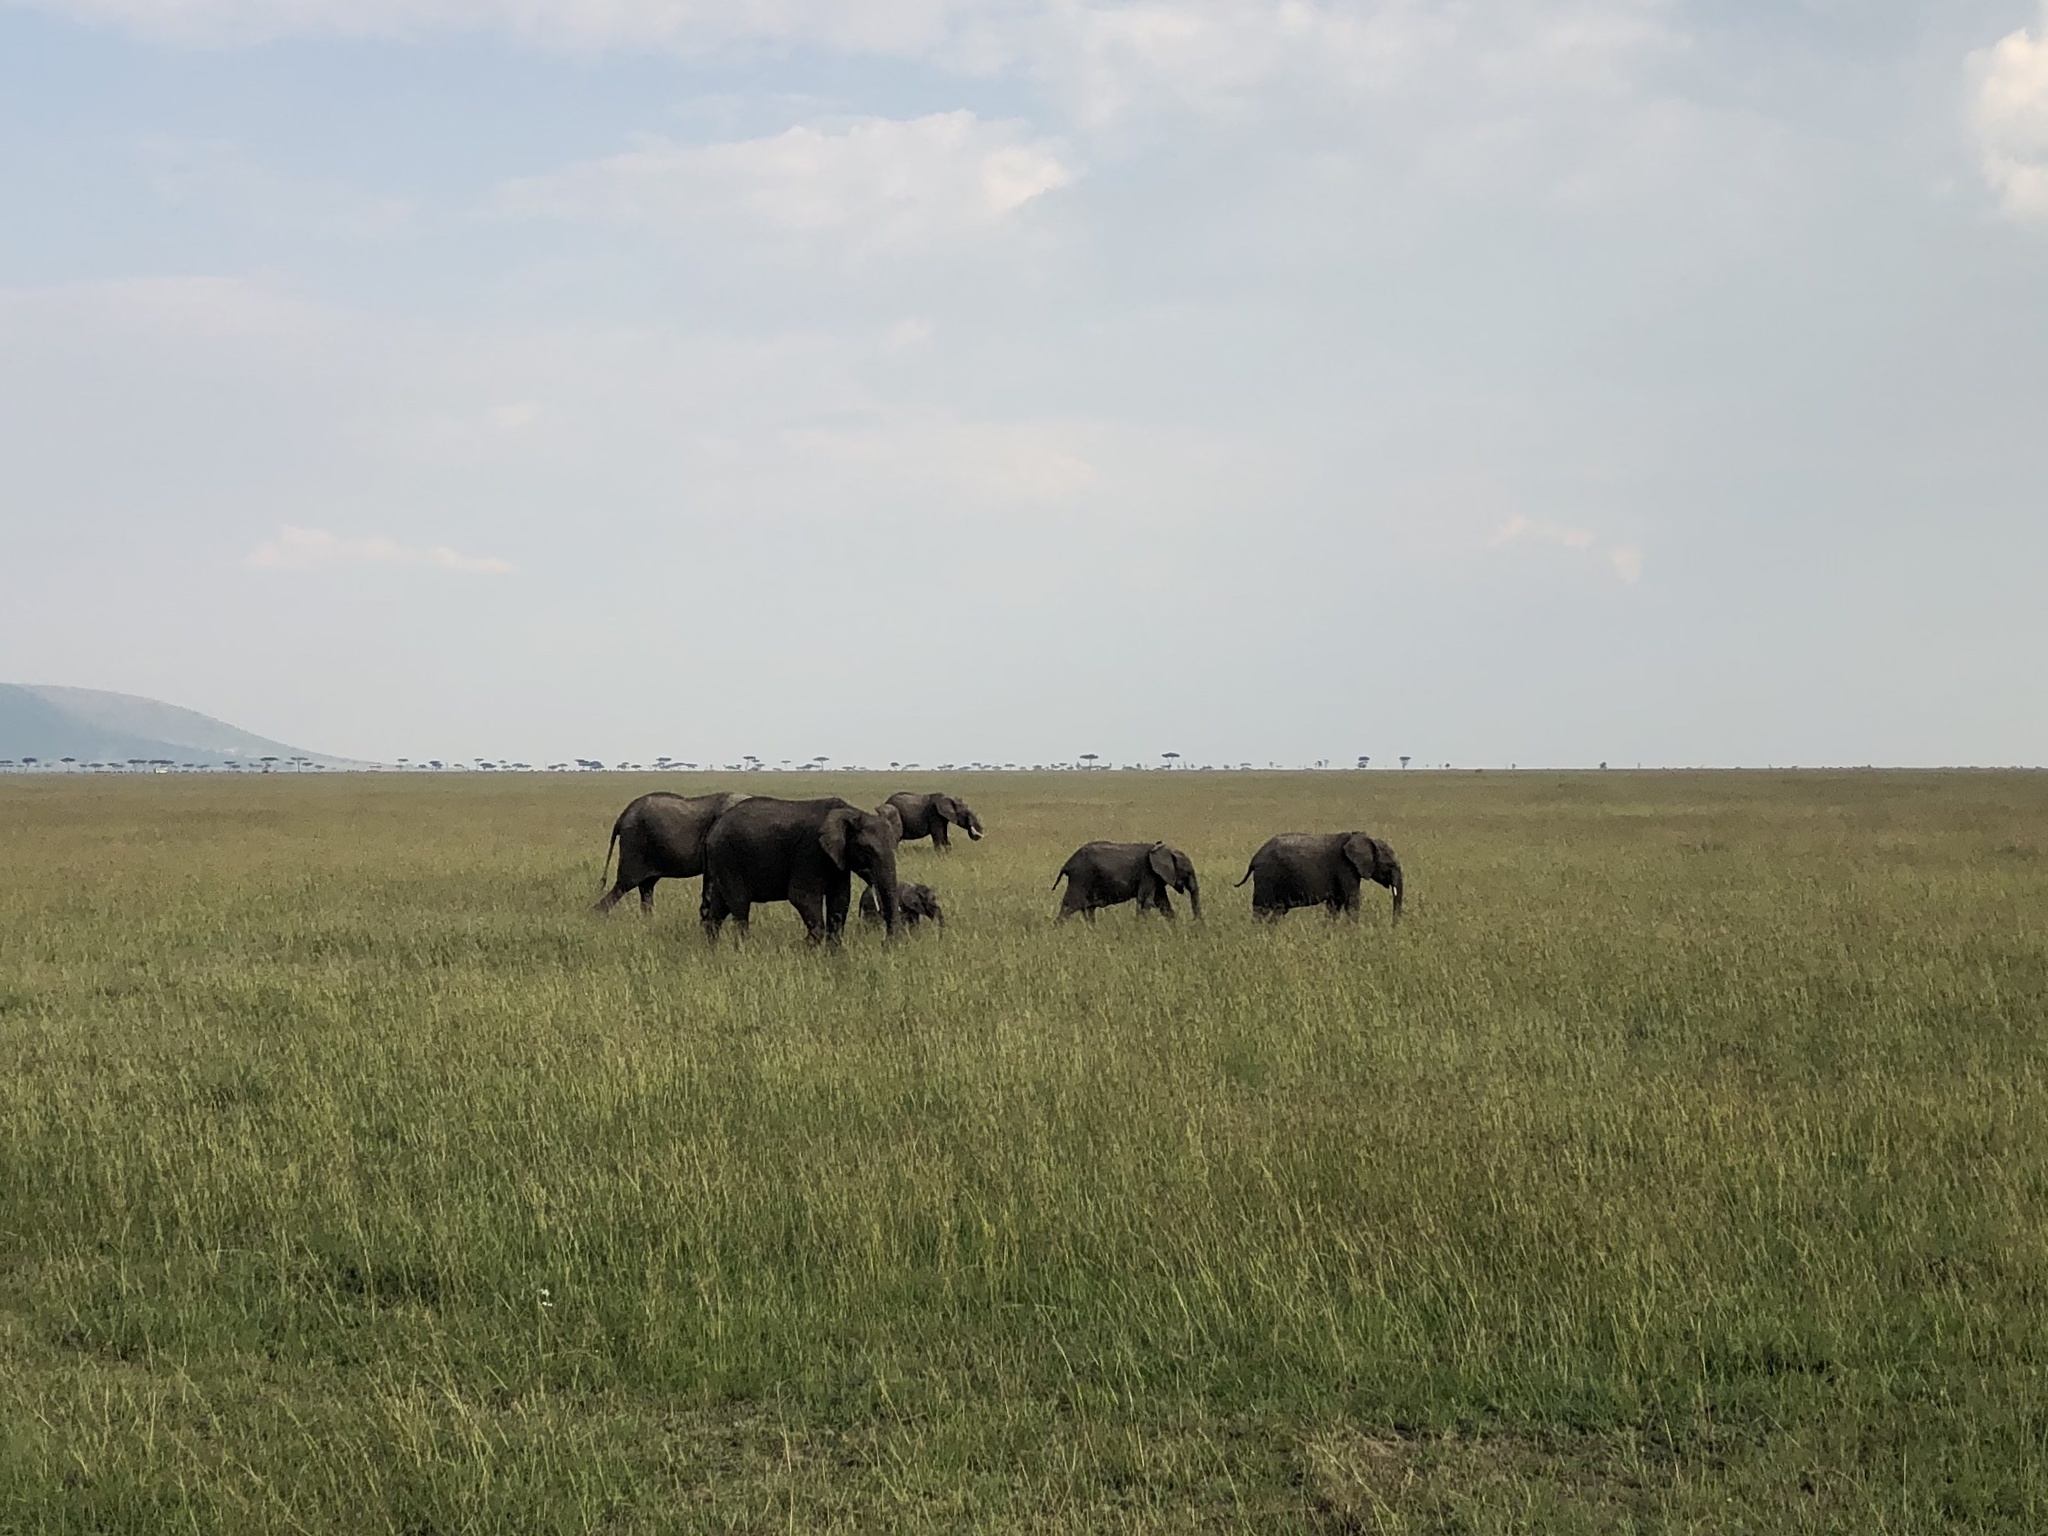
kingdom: Animalia
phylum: Chordata
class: Mammalia
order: Proboscidea
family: Elephantidae
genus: Loxodonta
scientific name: Loxodonta africana
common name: African elephant
